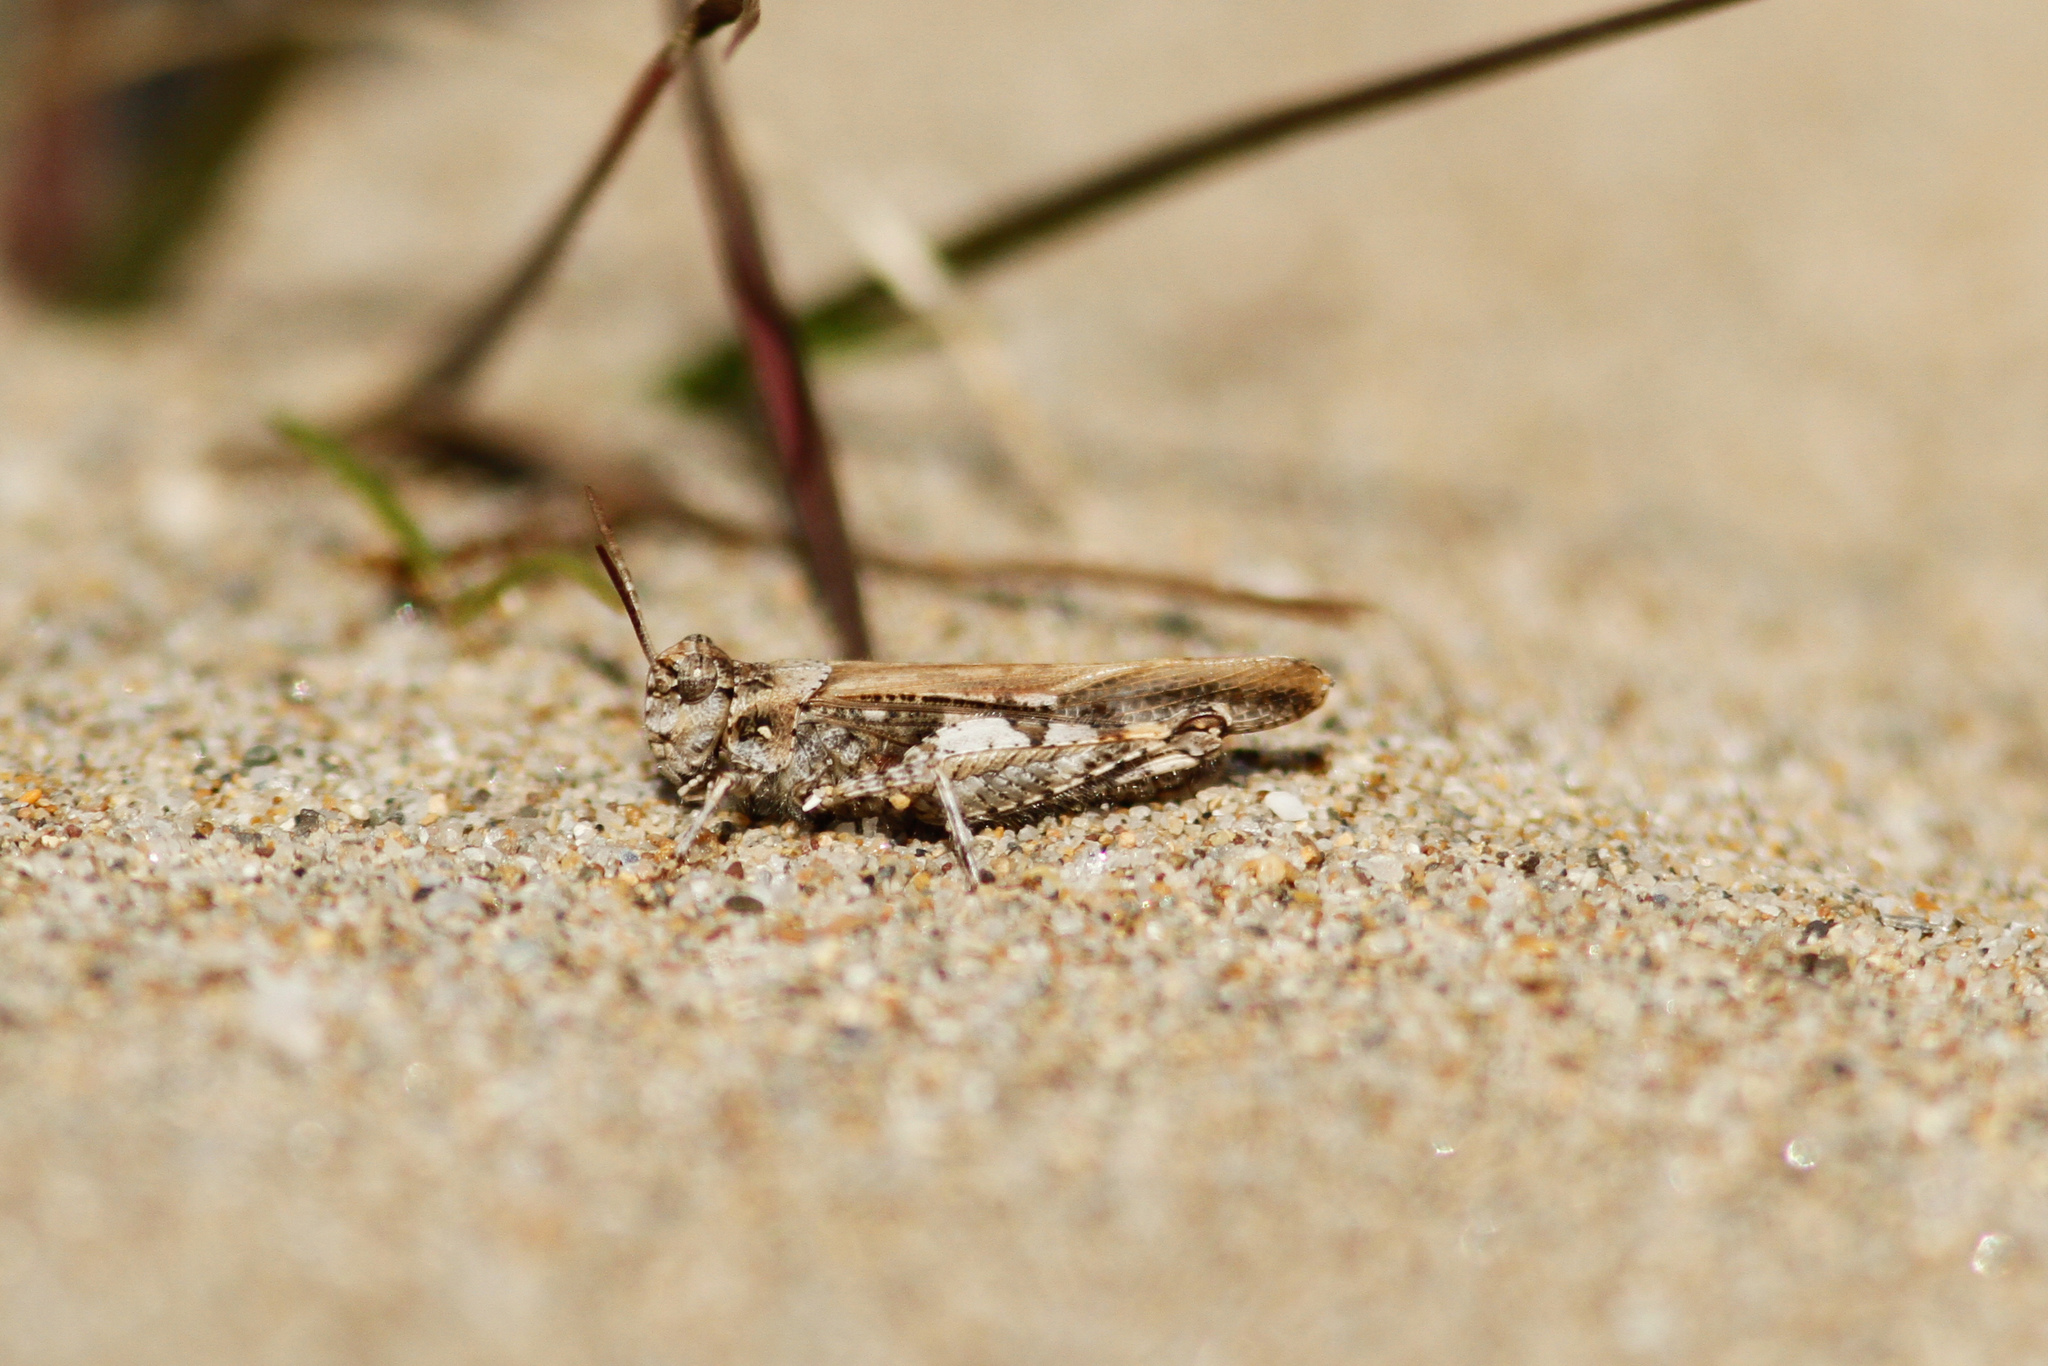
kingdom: Animalia
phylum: Arthropoda
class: Insecta
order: Orthoptera
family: Acrididae
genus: Acrotylus
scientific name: Acrotylus insubricus
